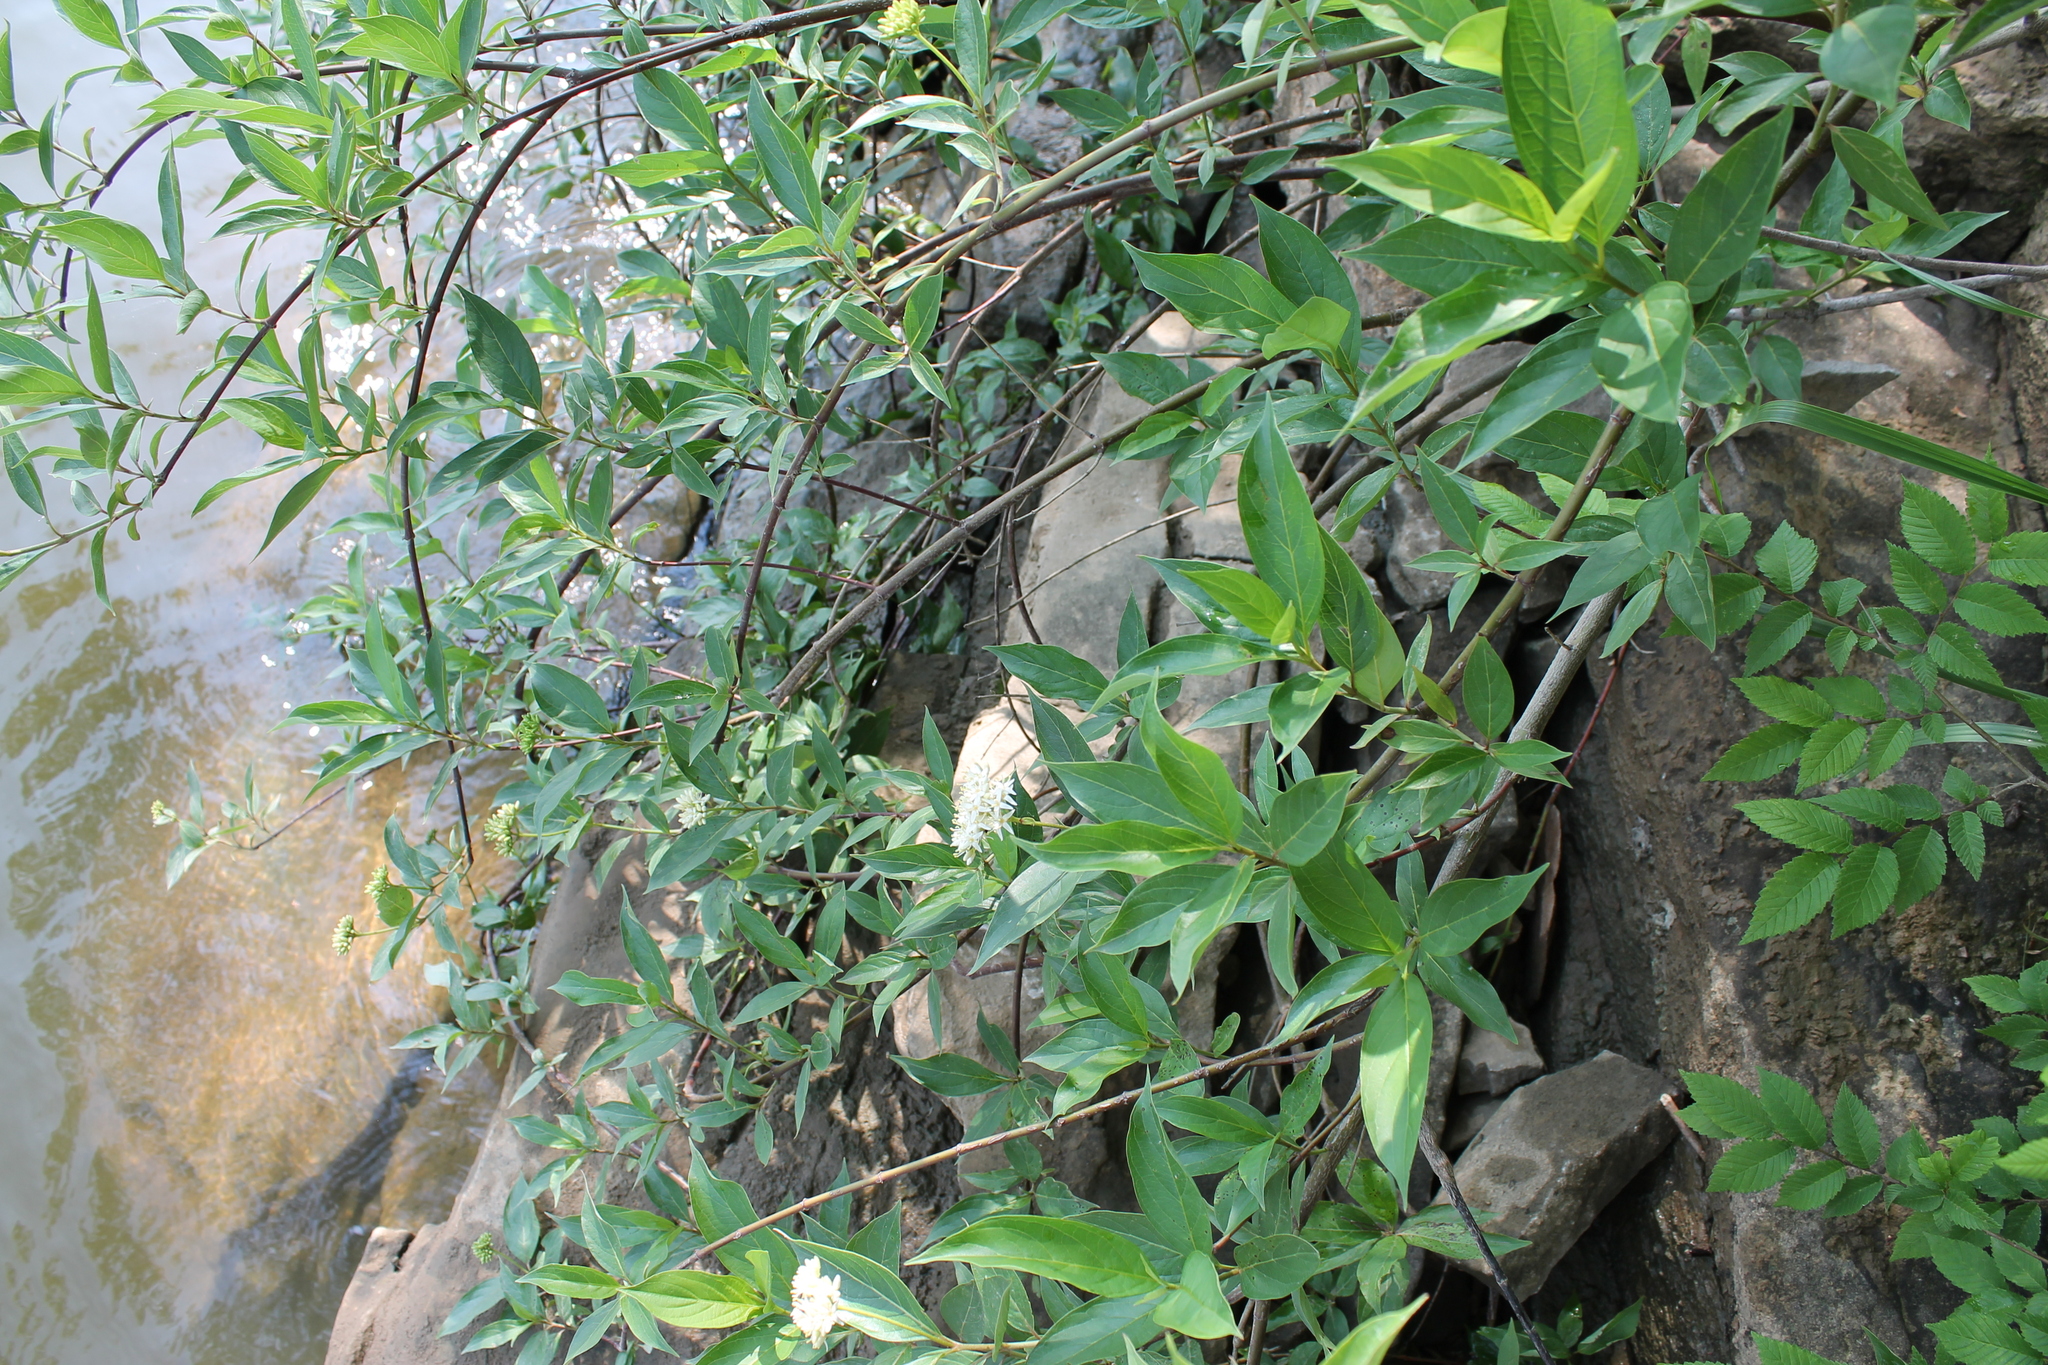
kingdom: Plantae
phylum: Tracheophyta
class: Magnoliopsida
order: Cornales
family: Cornaceae
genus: Cornus
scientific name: Cornus obliqua
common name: Pale dogwood
